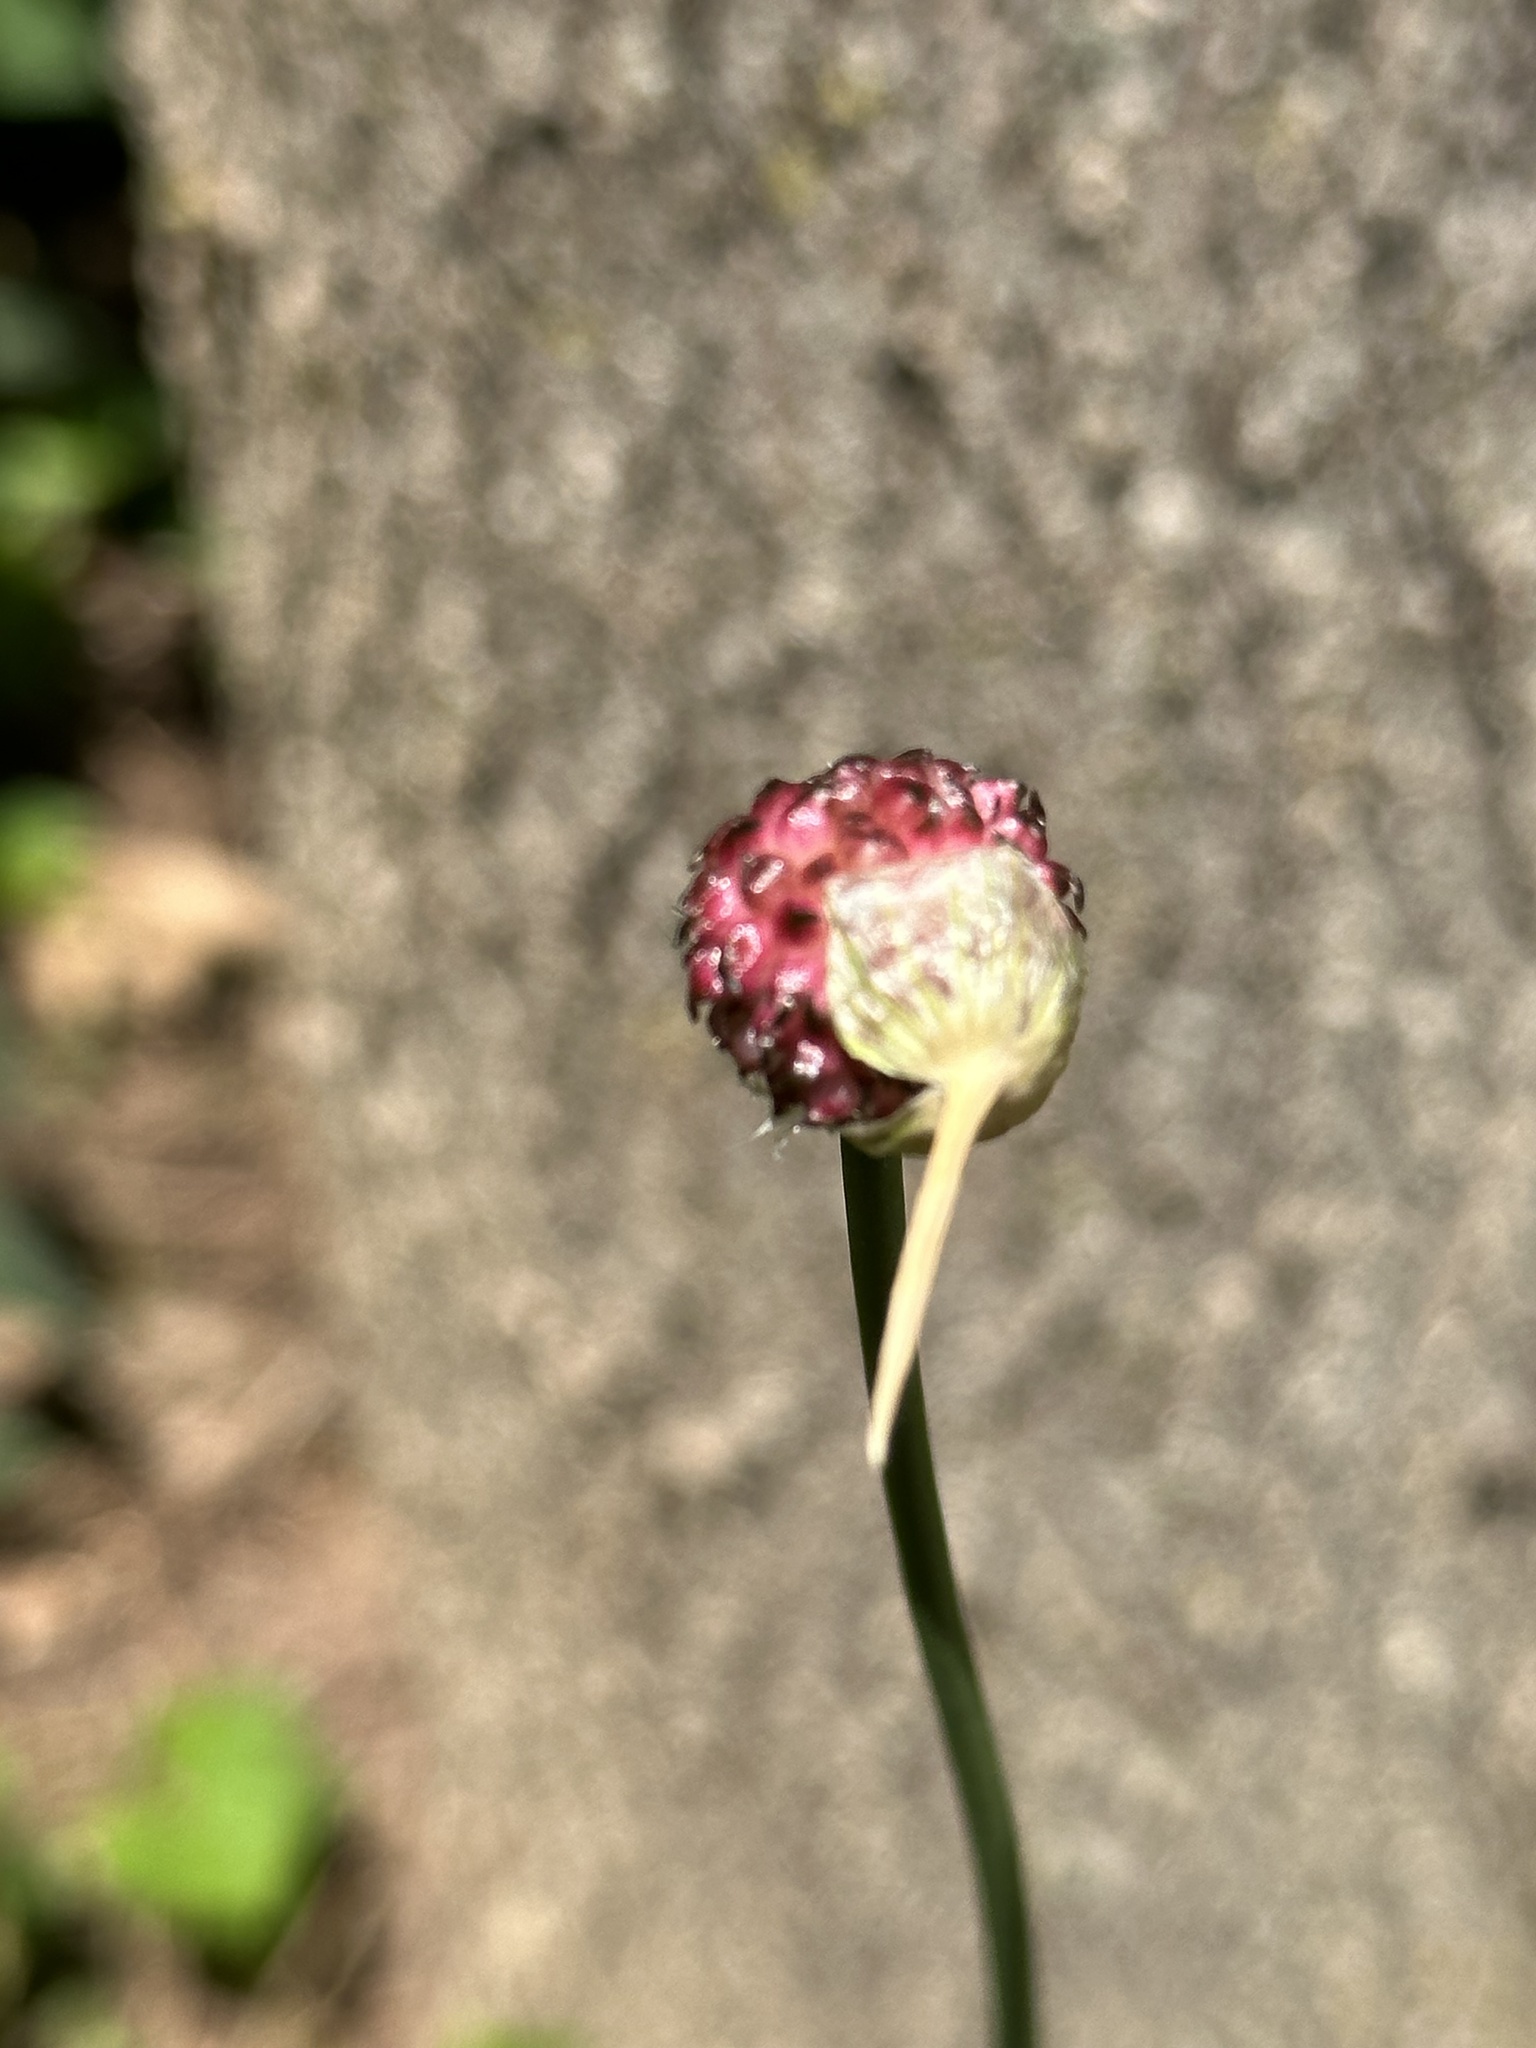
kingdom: Plantae
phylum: Tracheophyta
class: Liliopsida
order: Asparagales
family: Amaryllidaceae
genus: Allium
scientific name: Allium vineale
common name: Crow garlic
